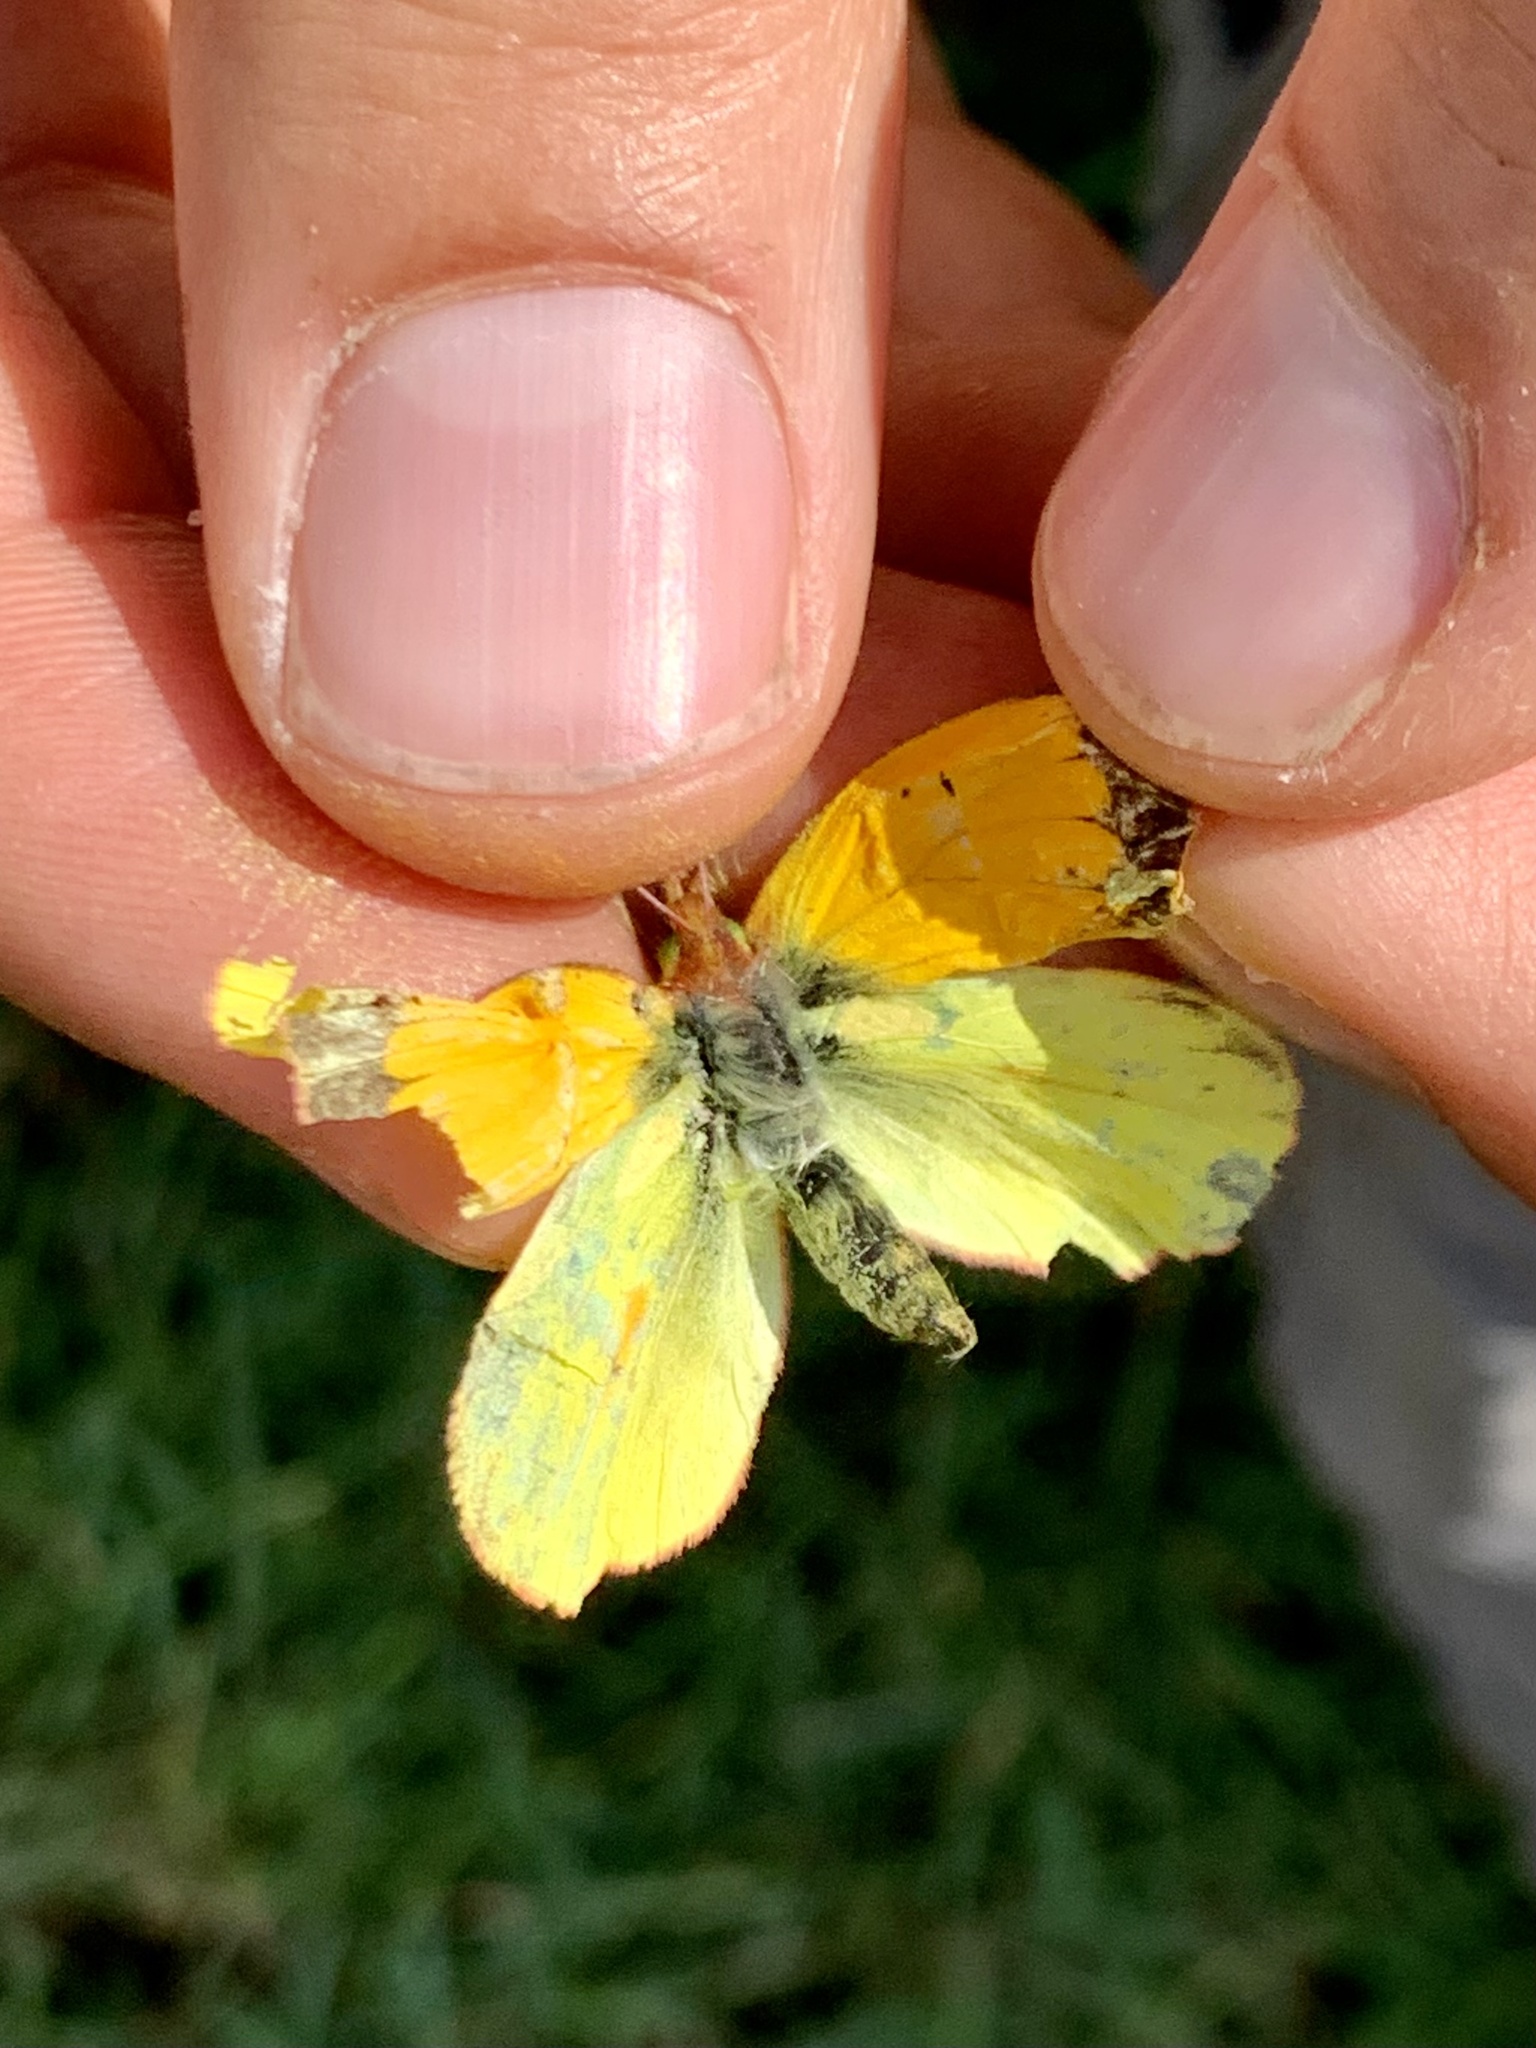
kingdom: Animalia
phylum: Arthropoda
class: Insecta
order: Lepidoptera
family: Pieridae
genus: Colias
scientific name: Colias dimera
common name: Dimera sulphur
